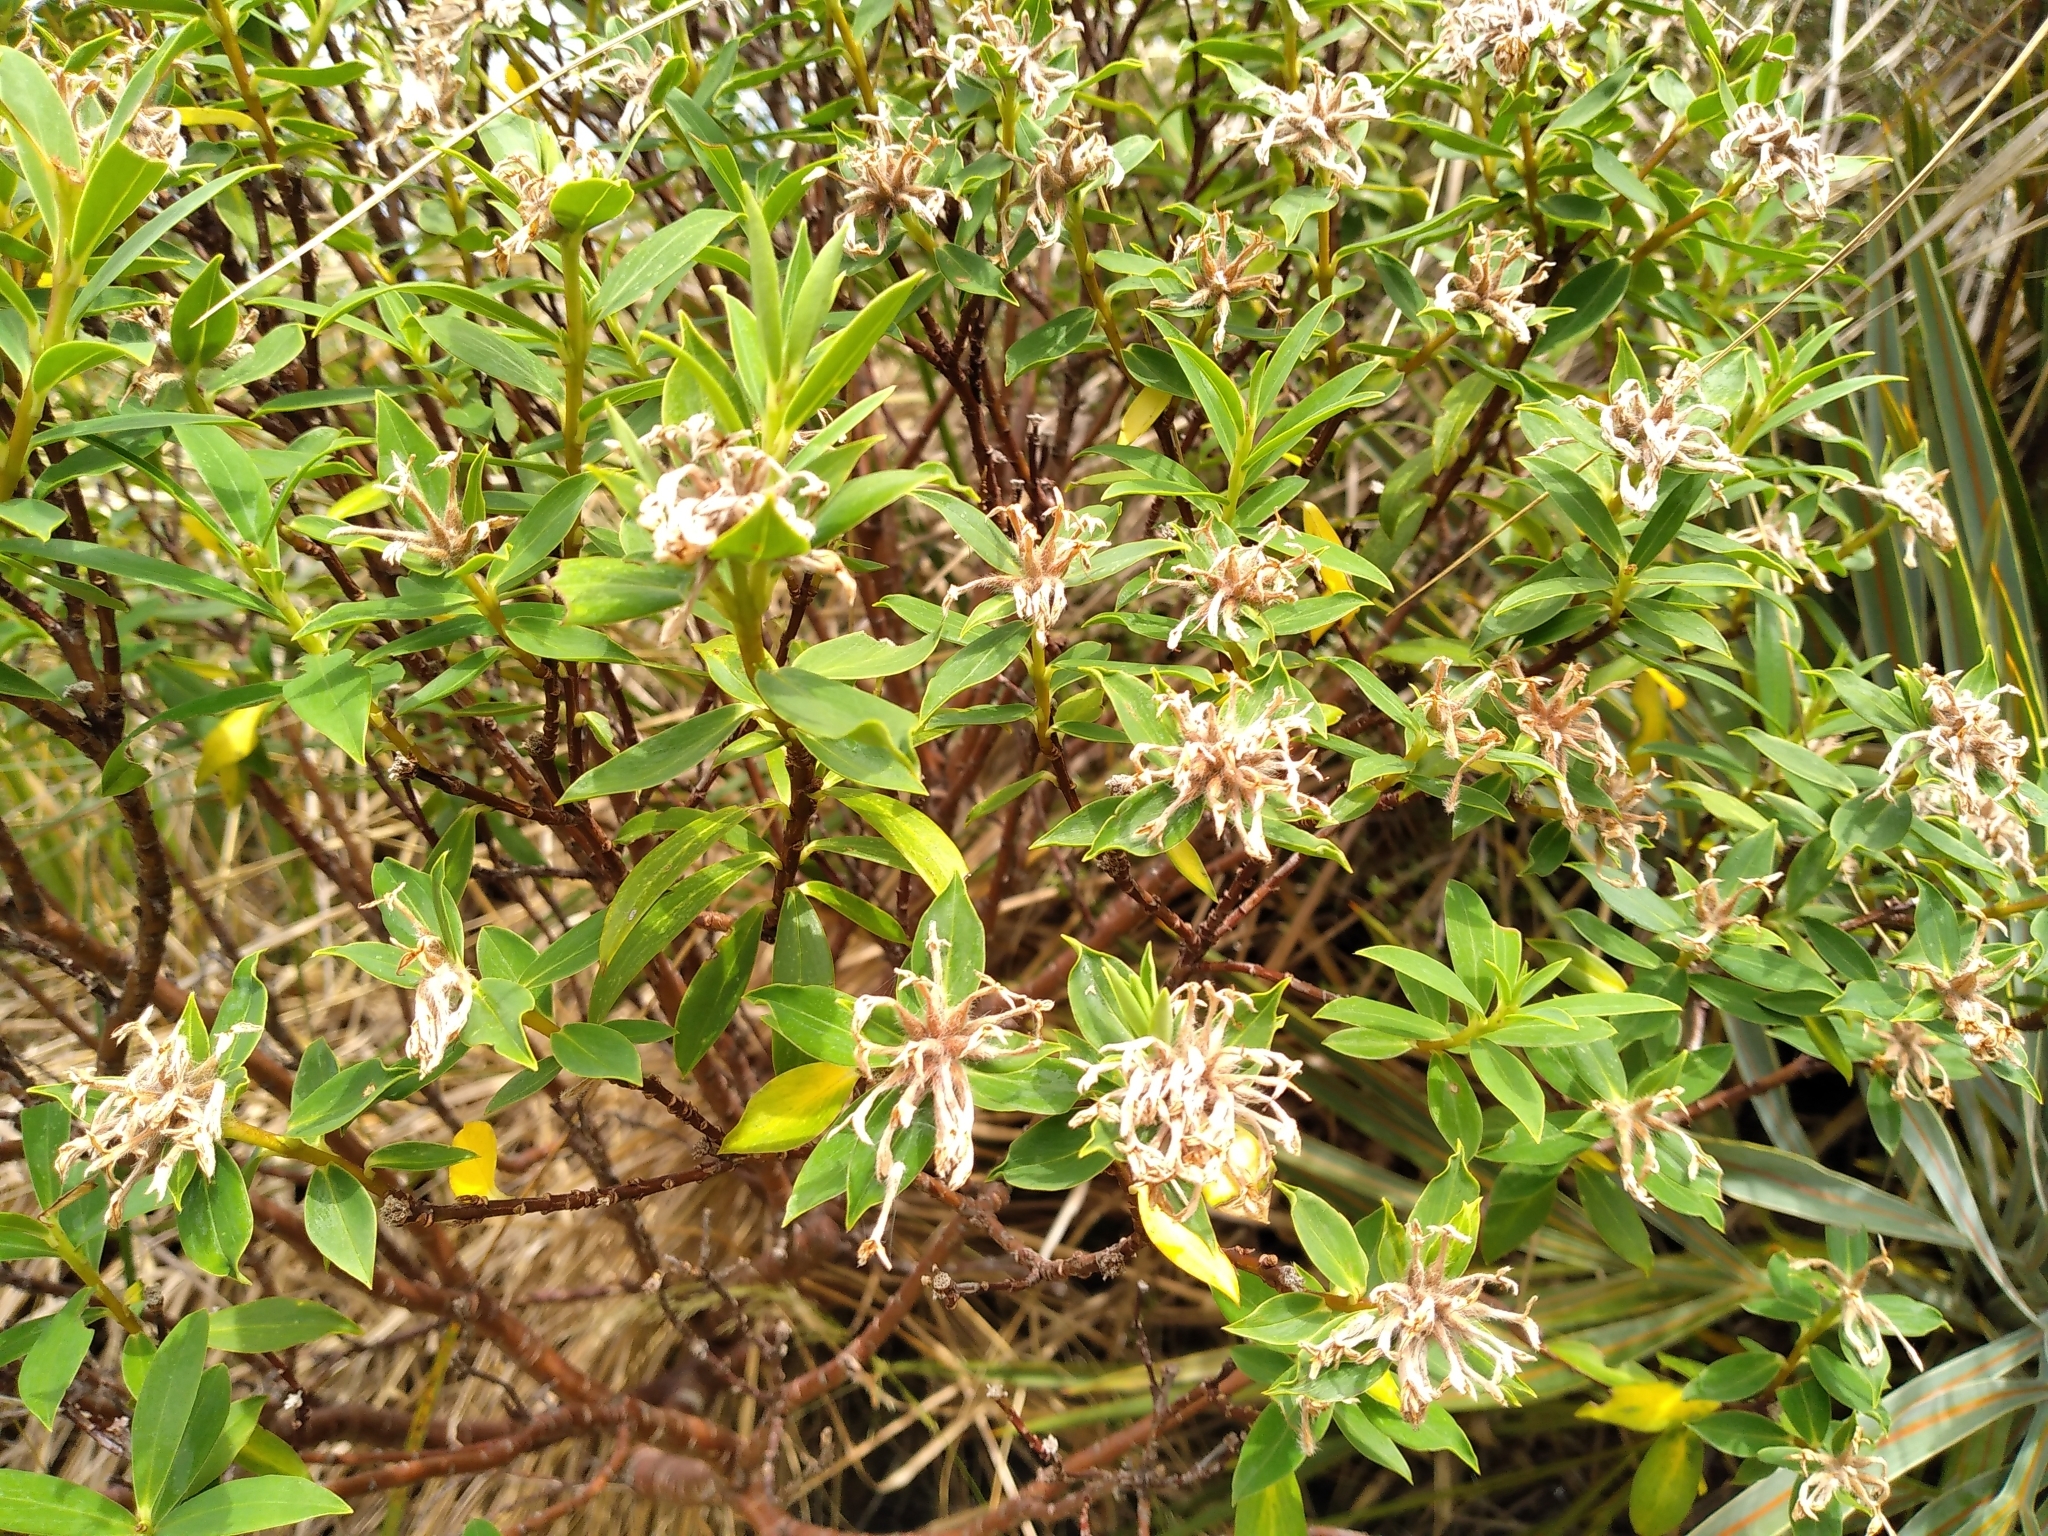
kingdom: Plantae
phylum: Tracheophyta
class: Magnoliopsida
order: Malvales
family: Thymelaeaceae
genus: Pimelea
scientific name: Pimelea longifolia
